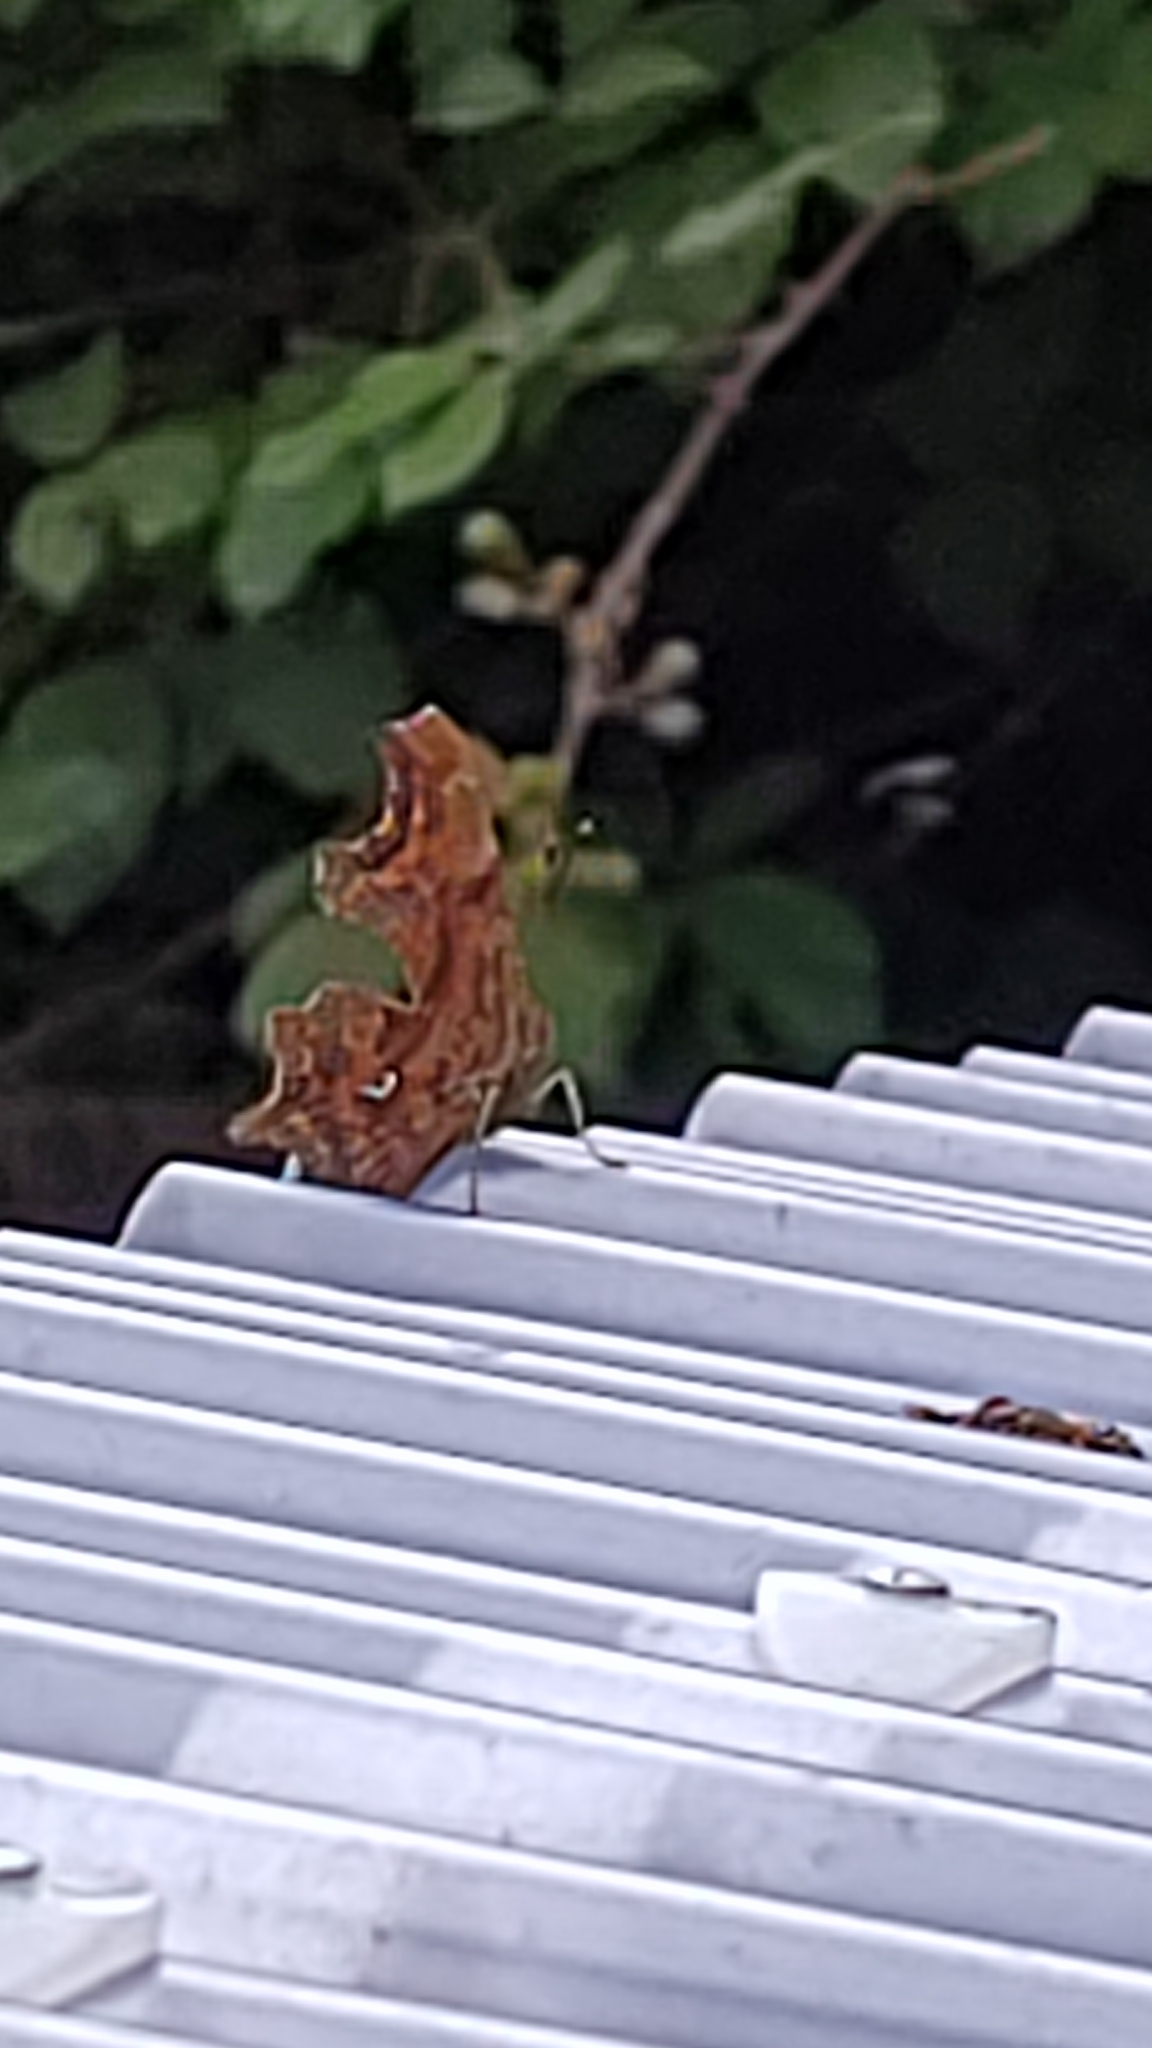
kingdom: Animalia
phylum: Arthropoda
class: Insecta
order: Lepidoptera
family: Nymphalidae
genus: Polygonia
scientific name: Polygonia c-album
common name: Comma
